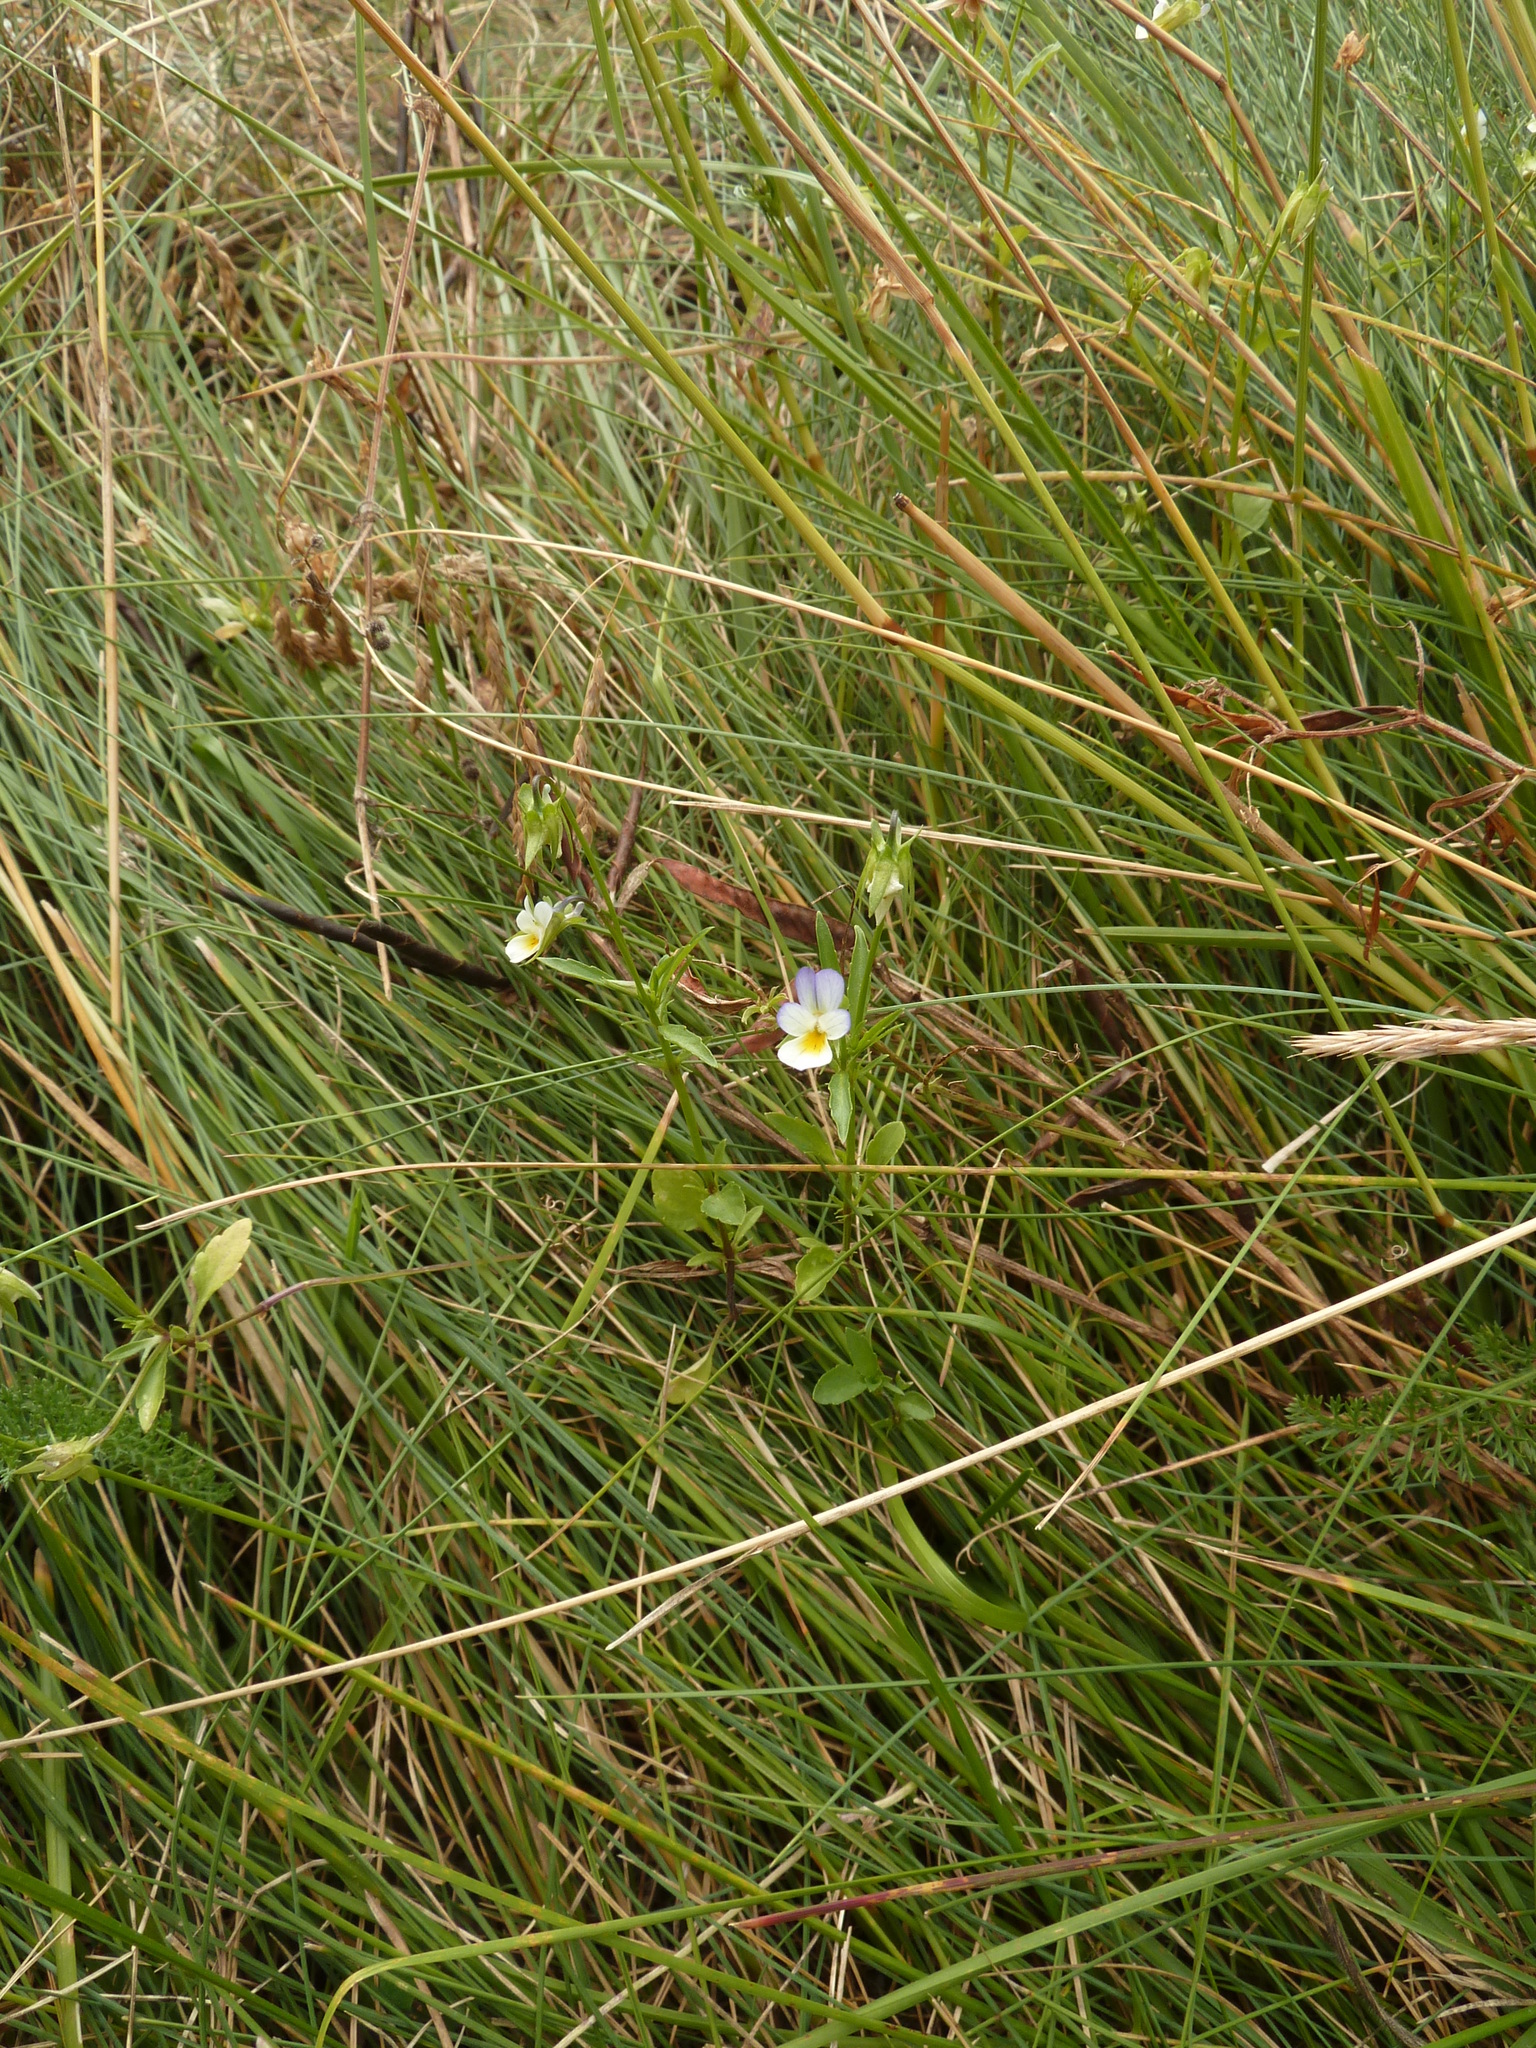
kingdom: Plantae
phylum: Tracheophyta
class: Magnoliopsida
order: Malpighiales
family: Violaceae
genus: Viola
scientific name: Viola arvensis
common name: Field pansy
